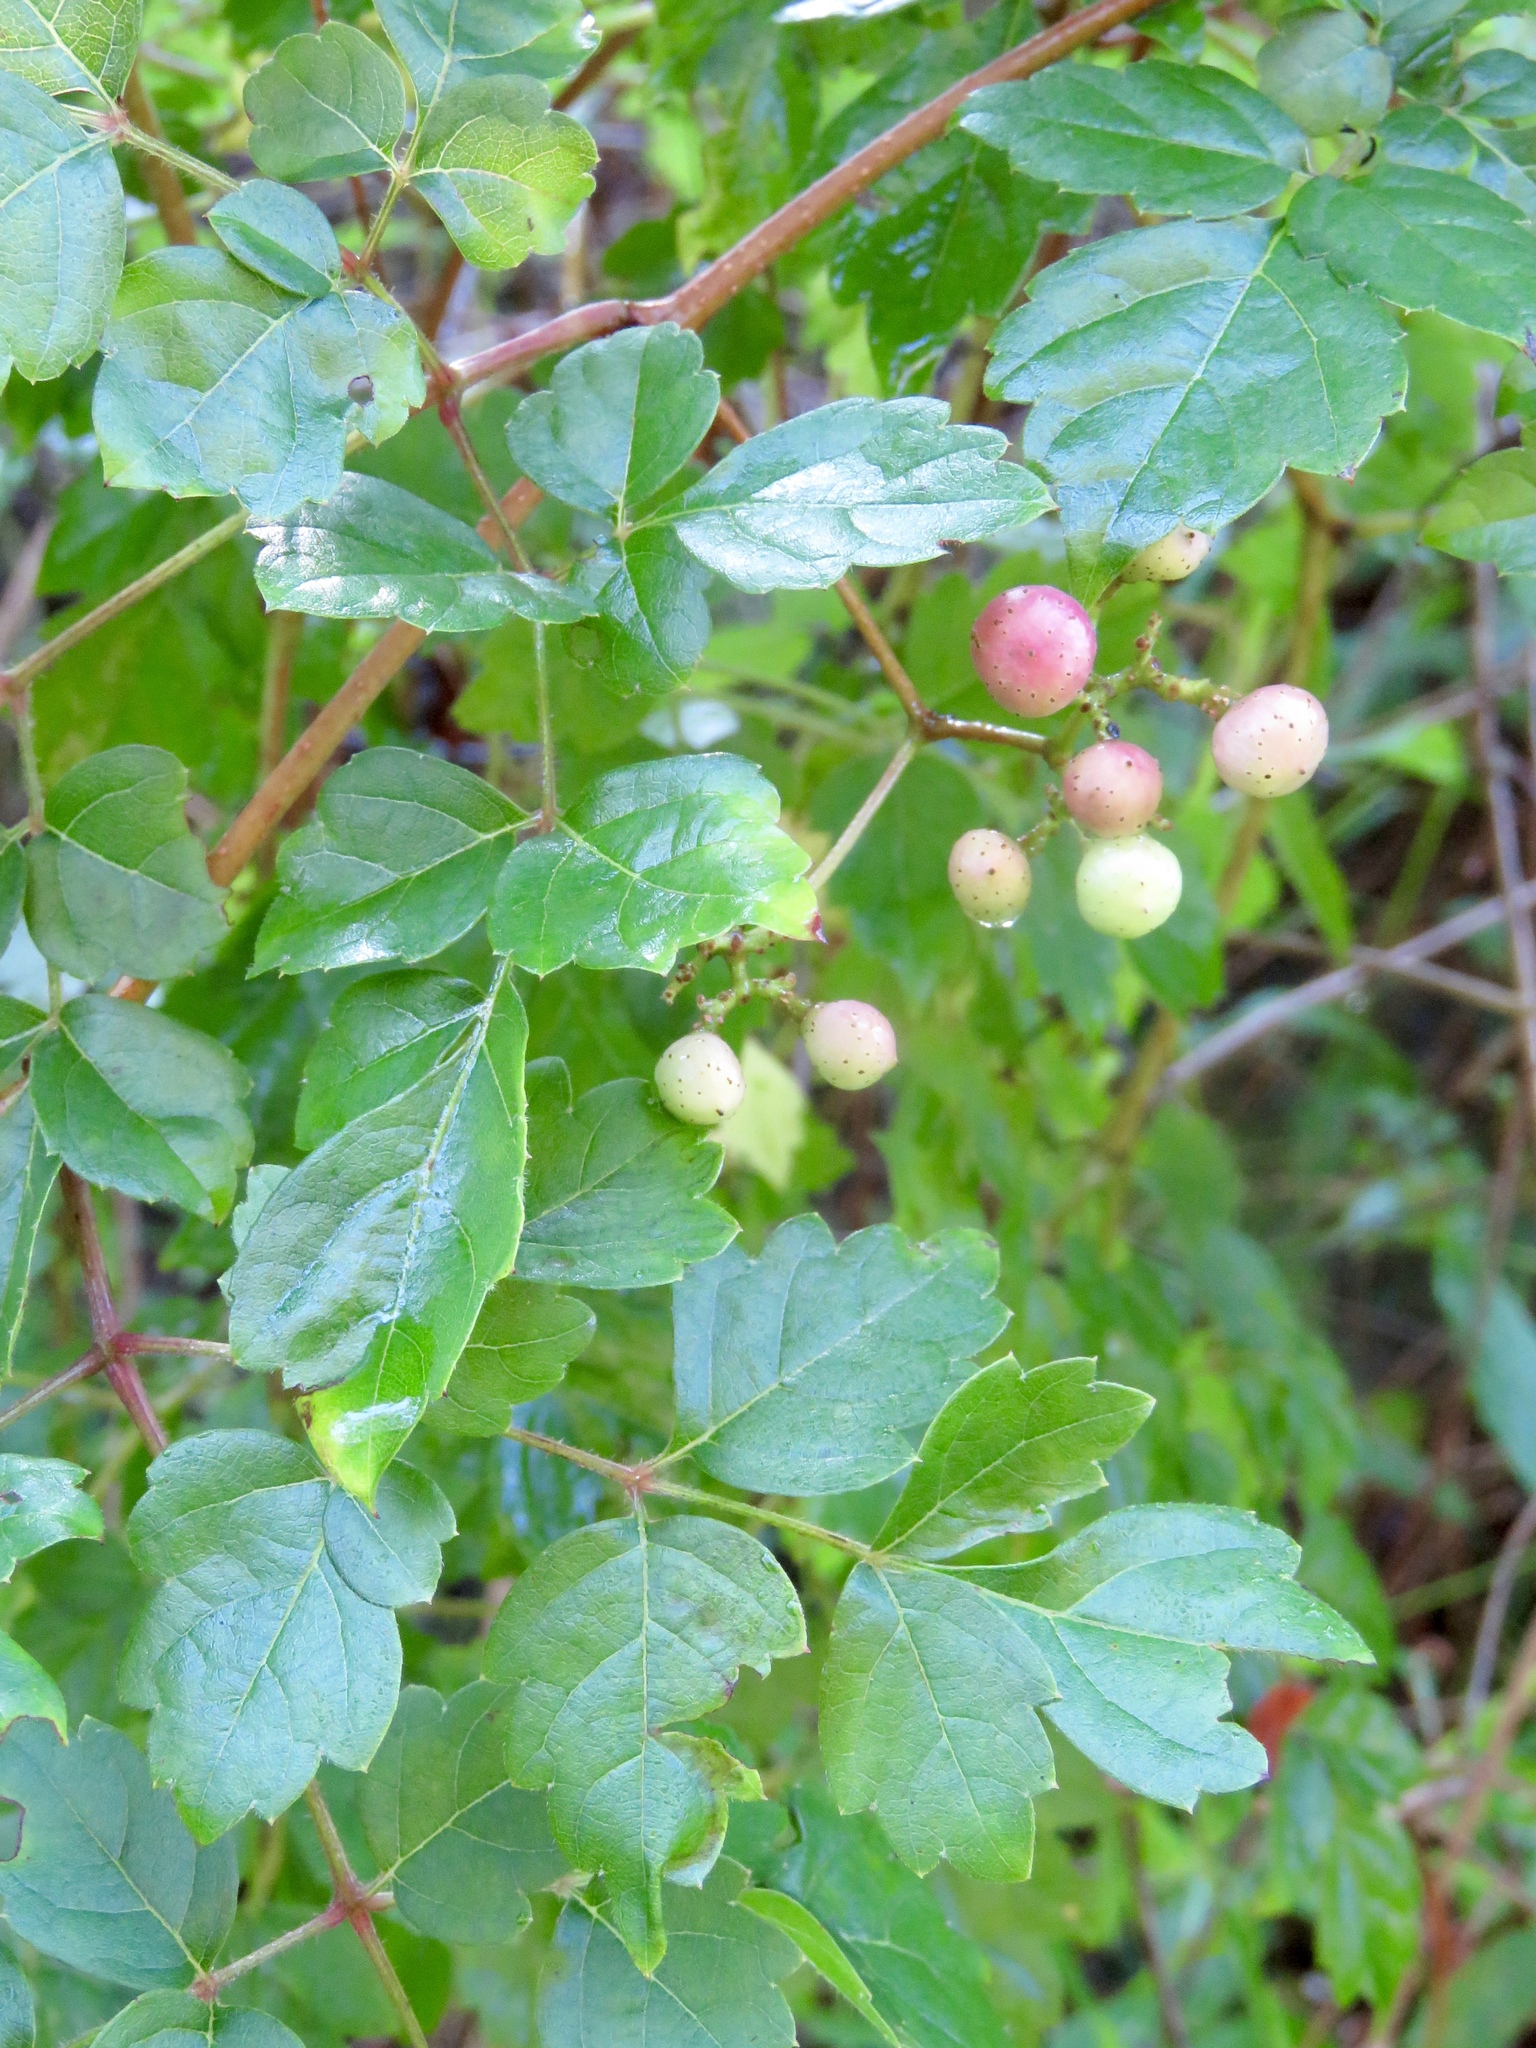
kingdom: Plantae
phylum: Tracheophyta
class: Magnoliopsida
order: Vitales
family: Vitaceae
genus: Nekemias
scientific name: Nekemias arborea
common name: Peppervine
